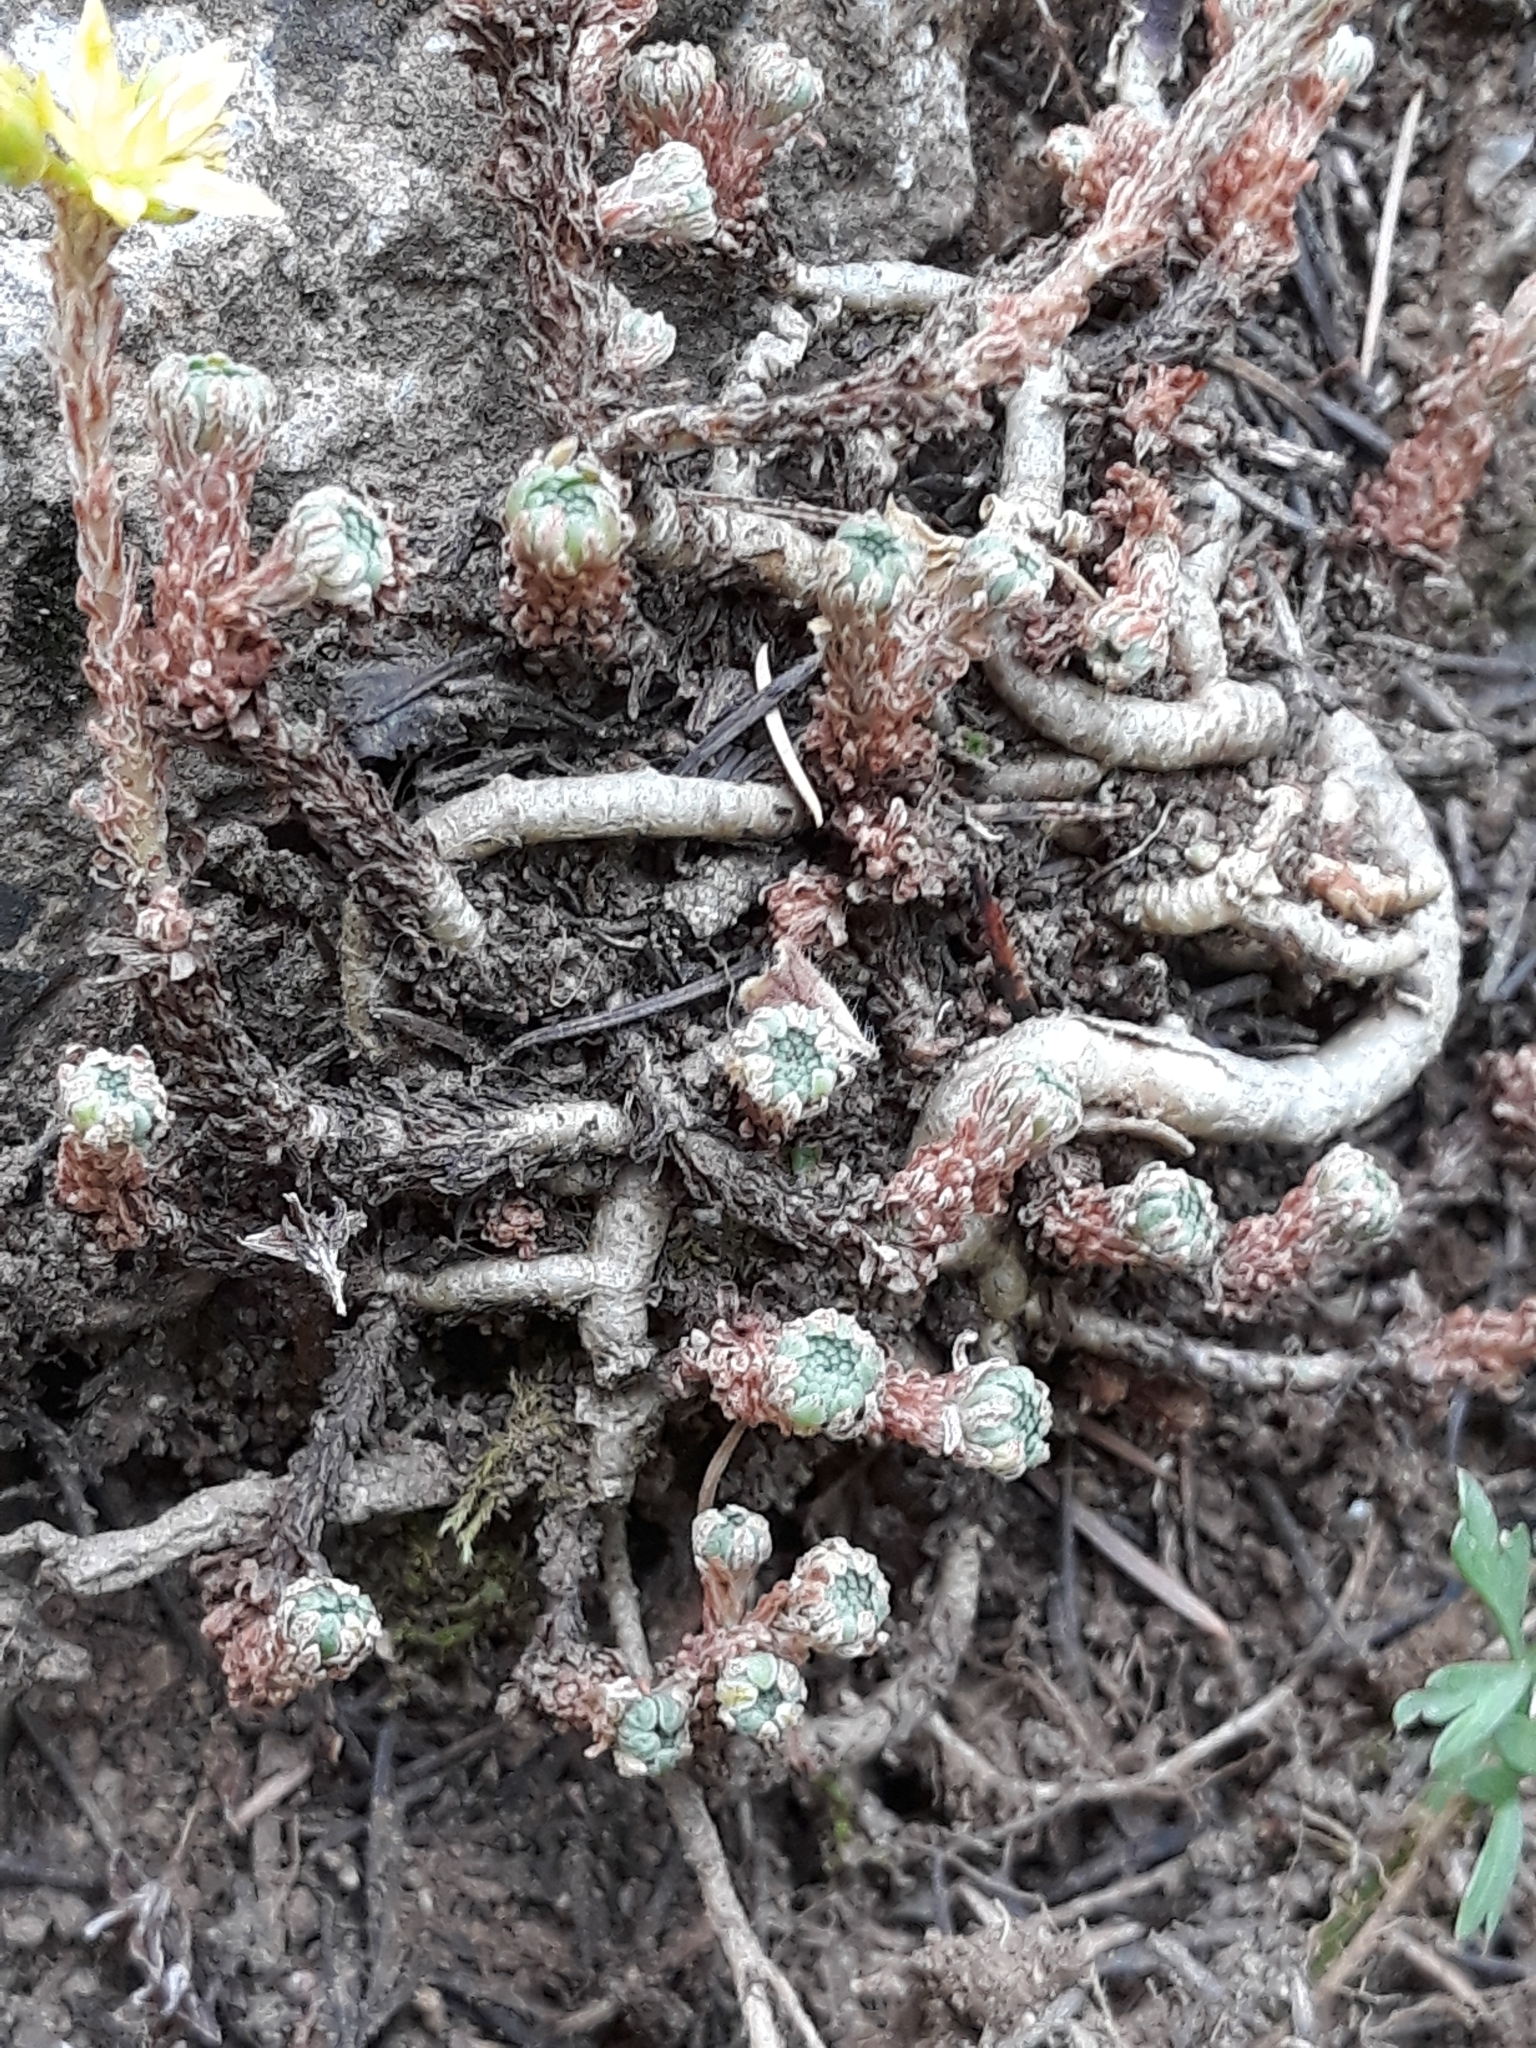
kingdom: Plantae
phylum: Tracheophyta
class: Magnoliopsida
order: Saxifragales
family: Crassulaceae
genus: Sedum
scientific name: Sedum multiceps
